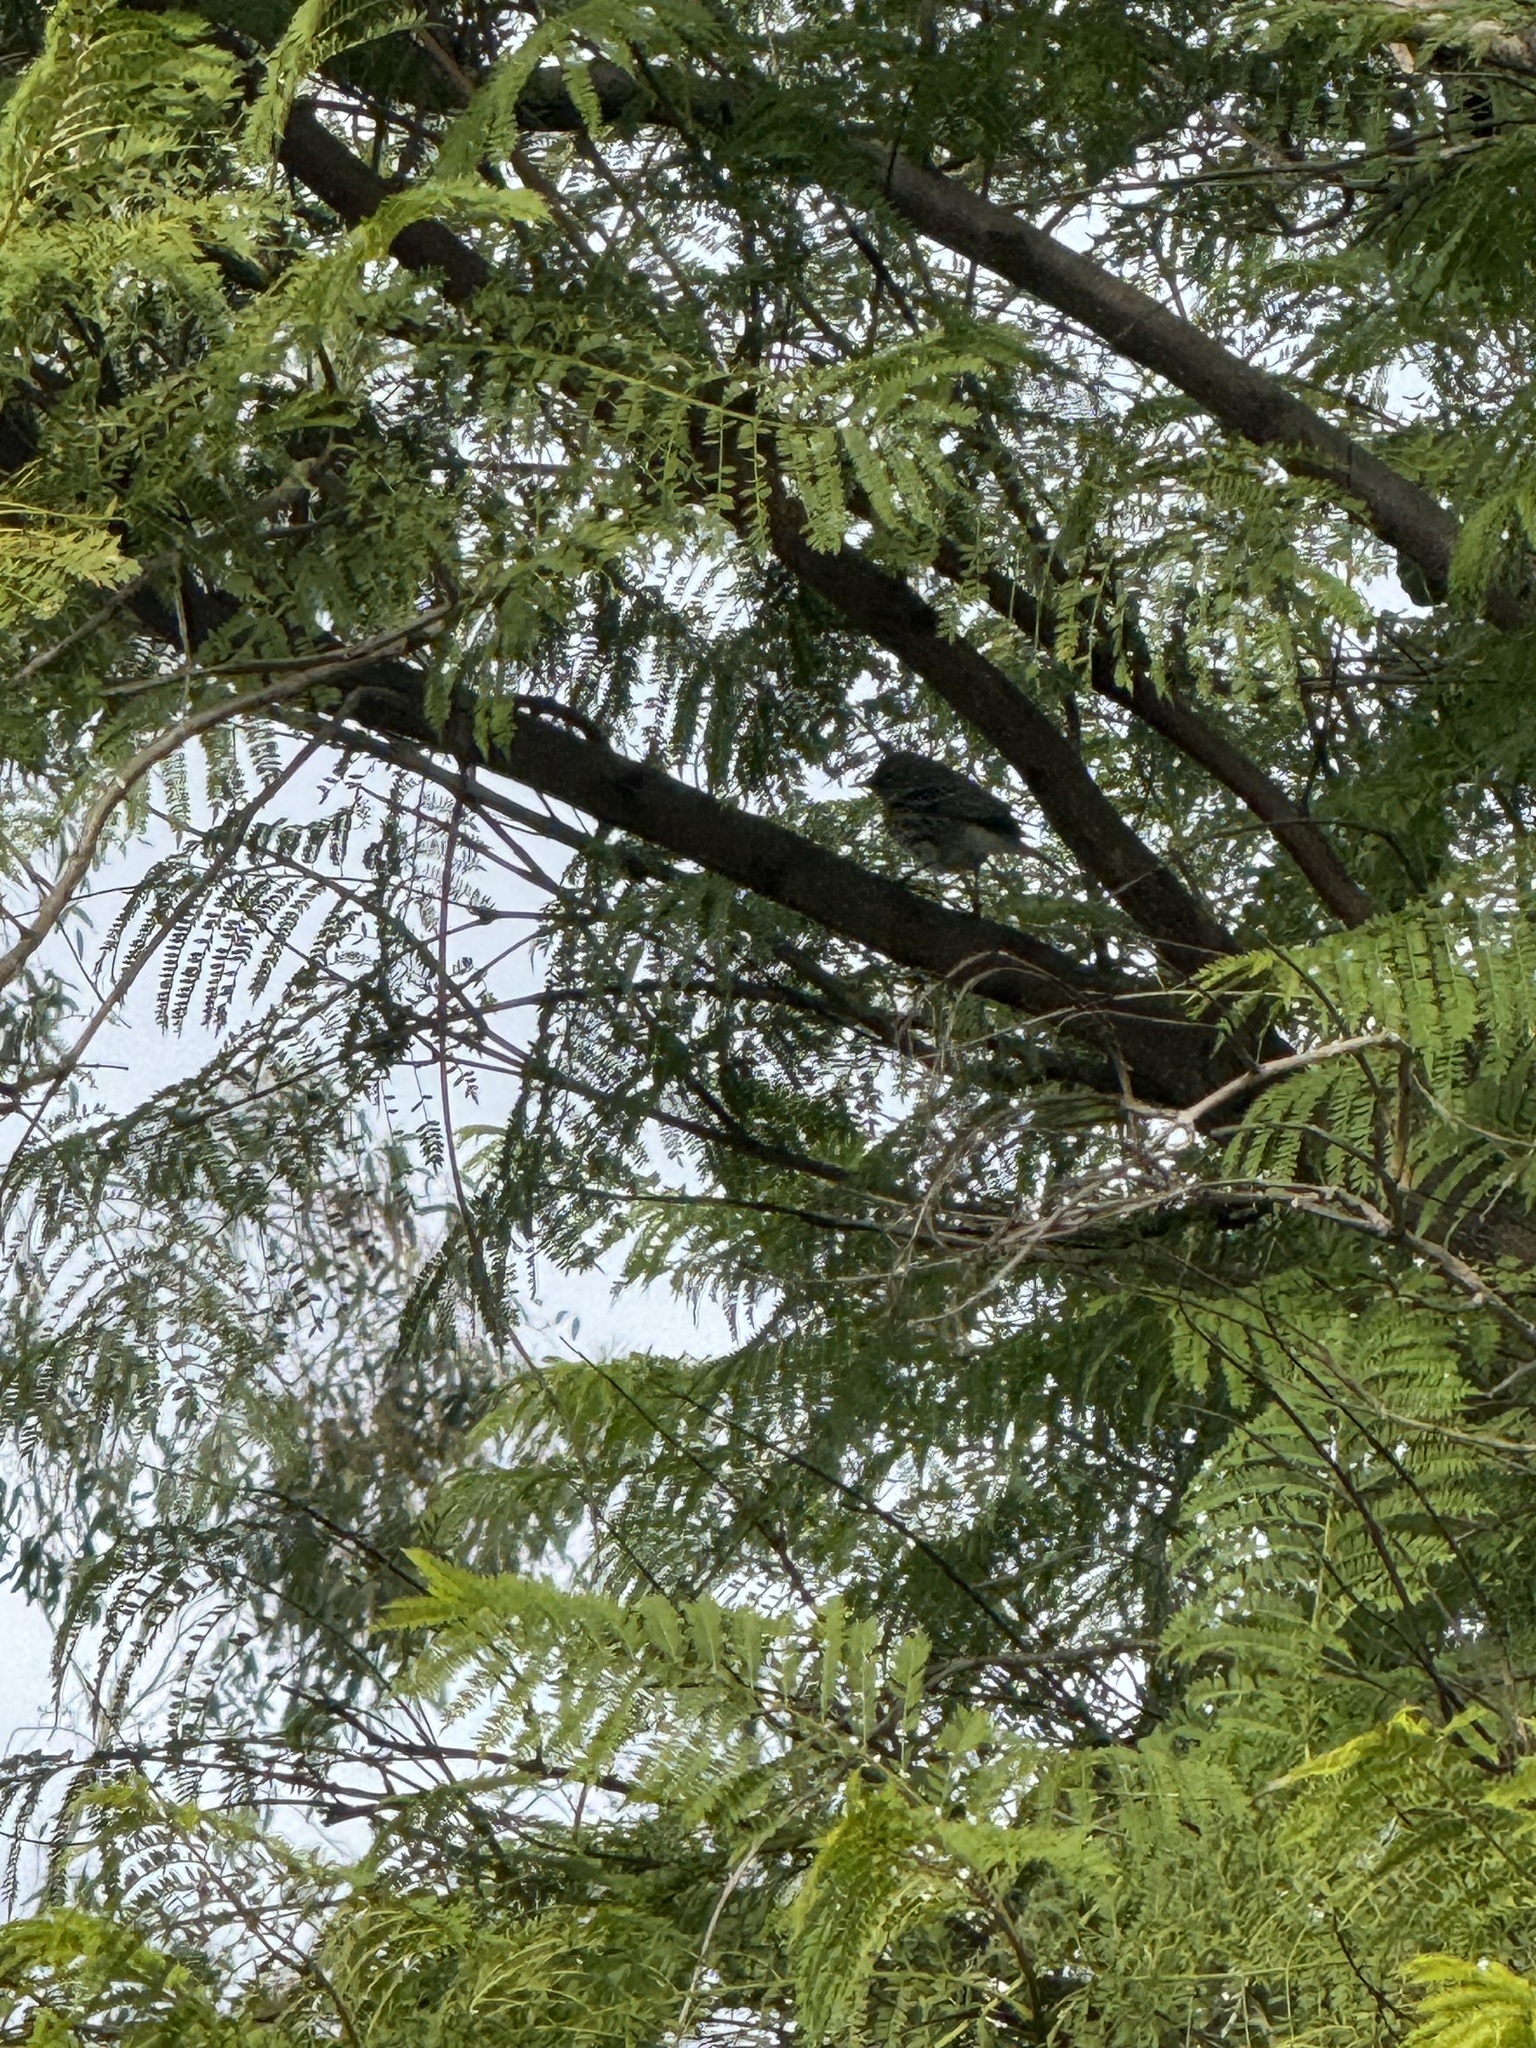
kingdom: Animalia
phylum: Chordata
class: Aves
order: Passeriformes
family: Parulidae
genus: Setophaga
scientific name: Setophaga auduboni
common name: Audubon's warbler
